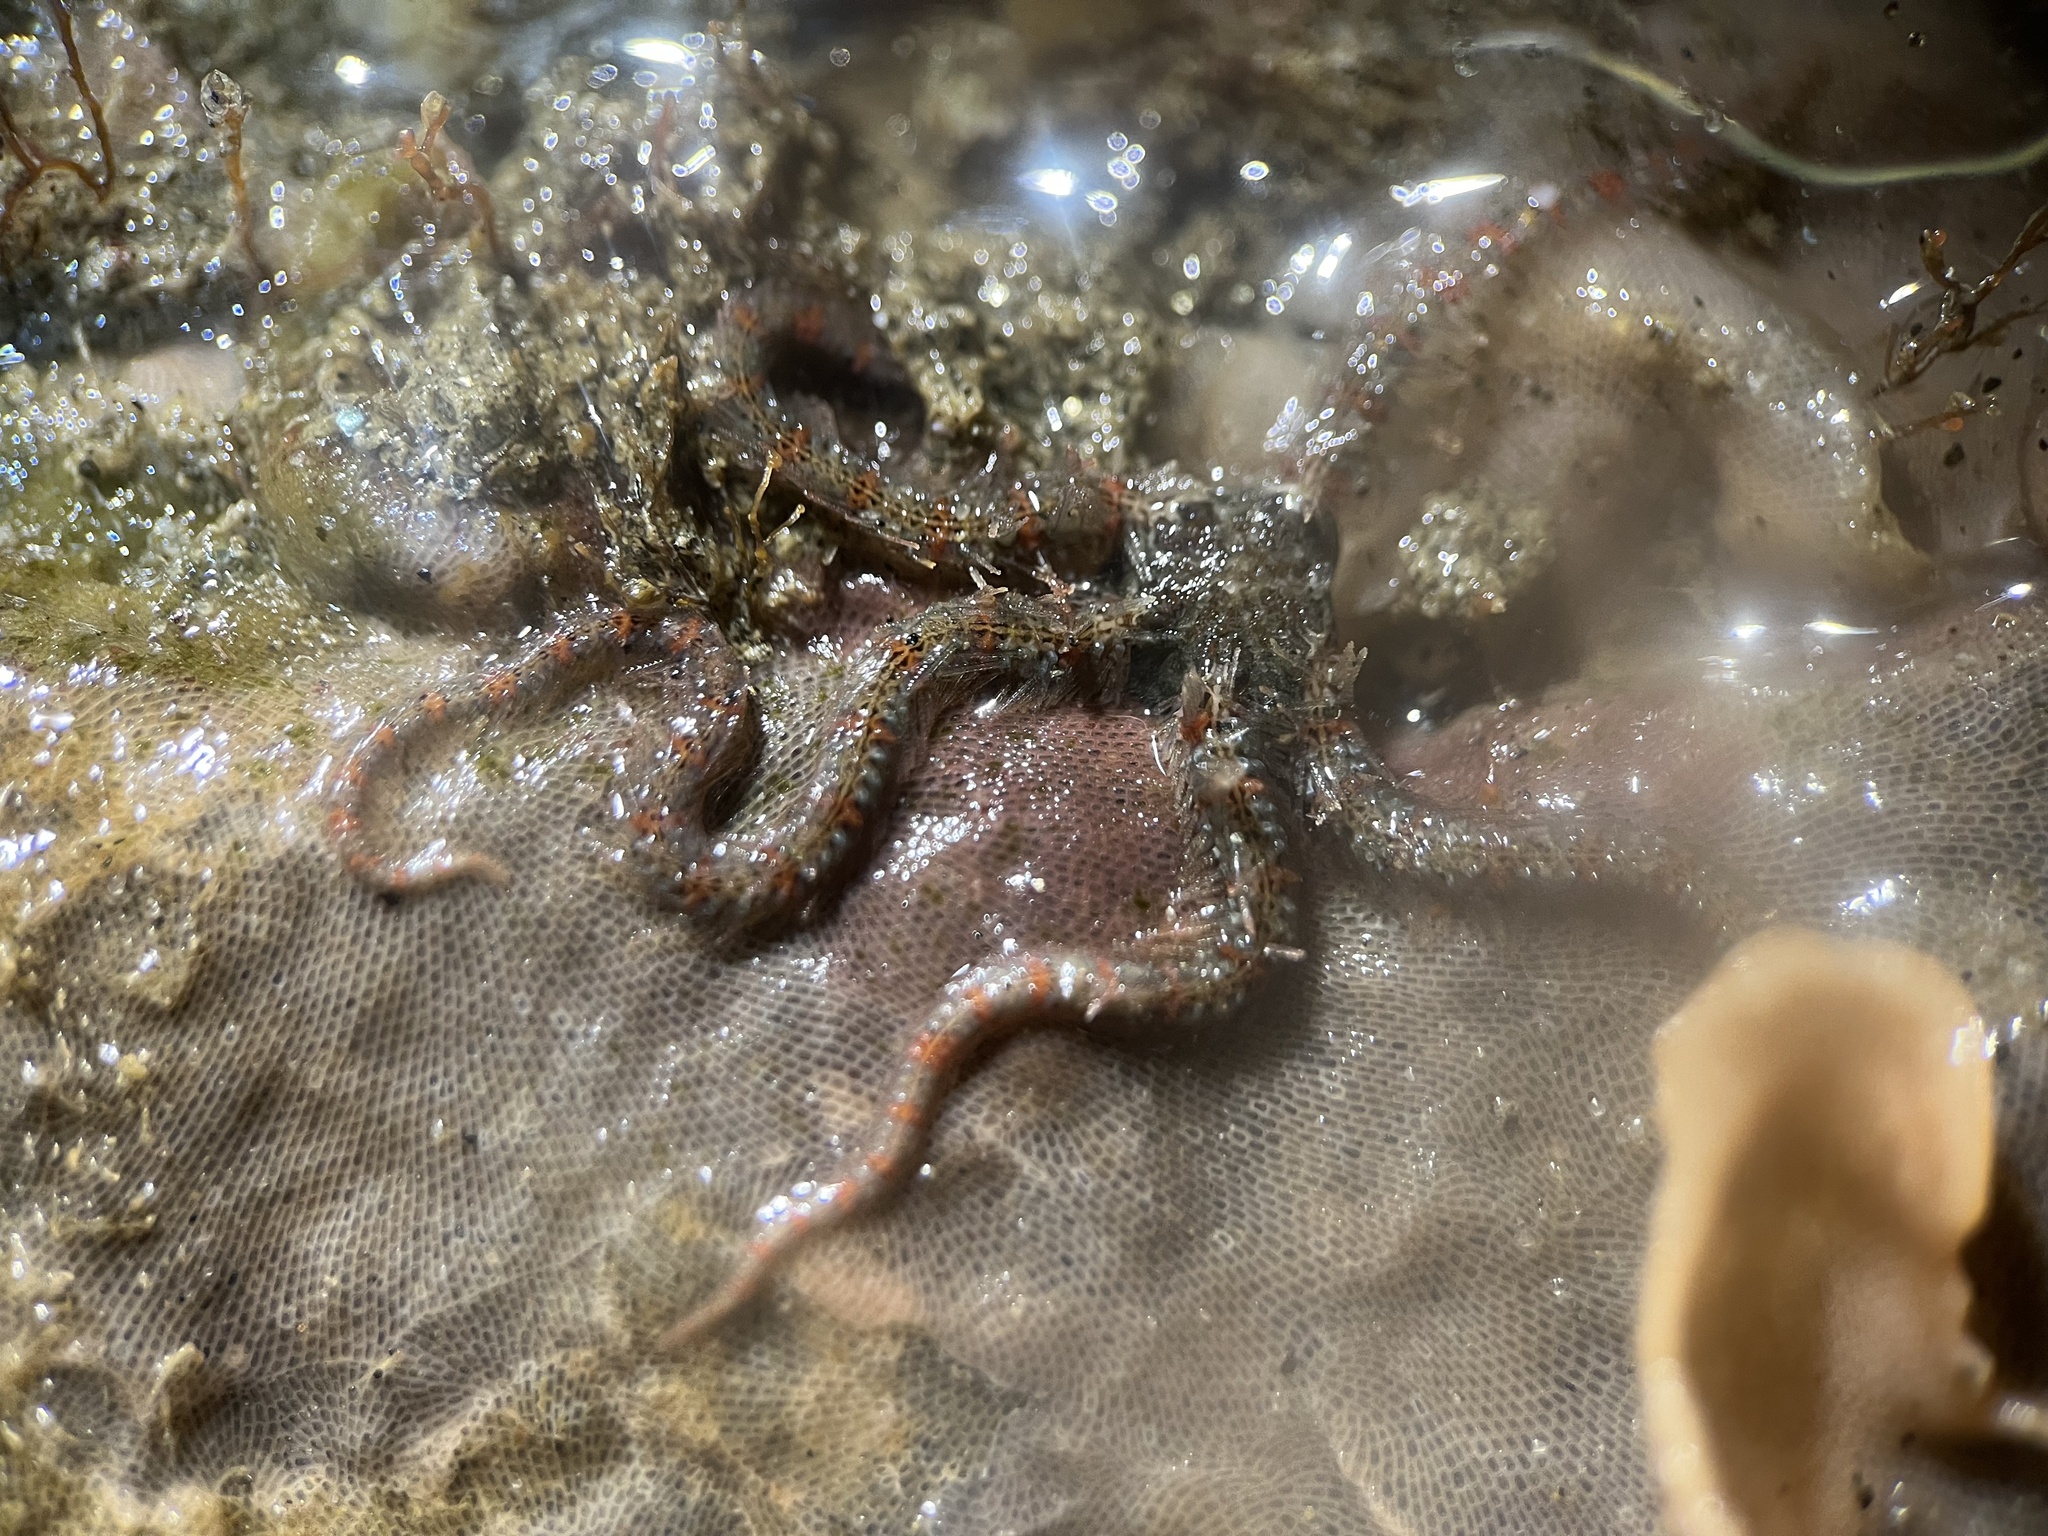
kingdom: Animalia
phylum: Echinodermata
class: Ophiuroidea
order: Amphilepidida
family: Ophiotrichidae
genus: Ophiothrix
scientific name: Ophiothrix spiculata
